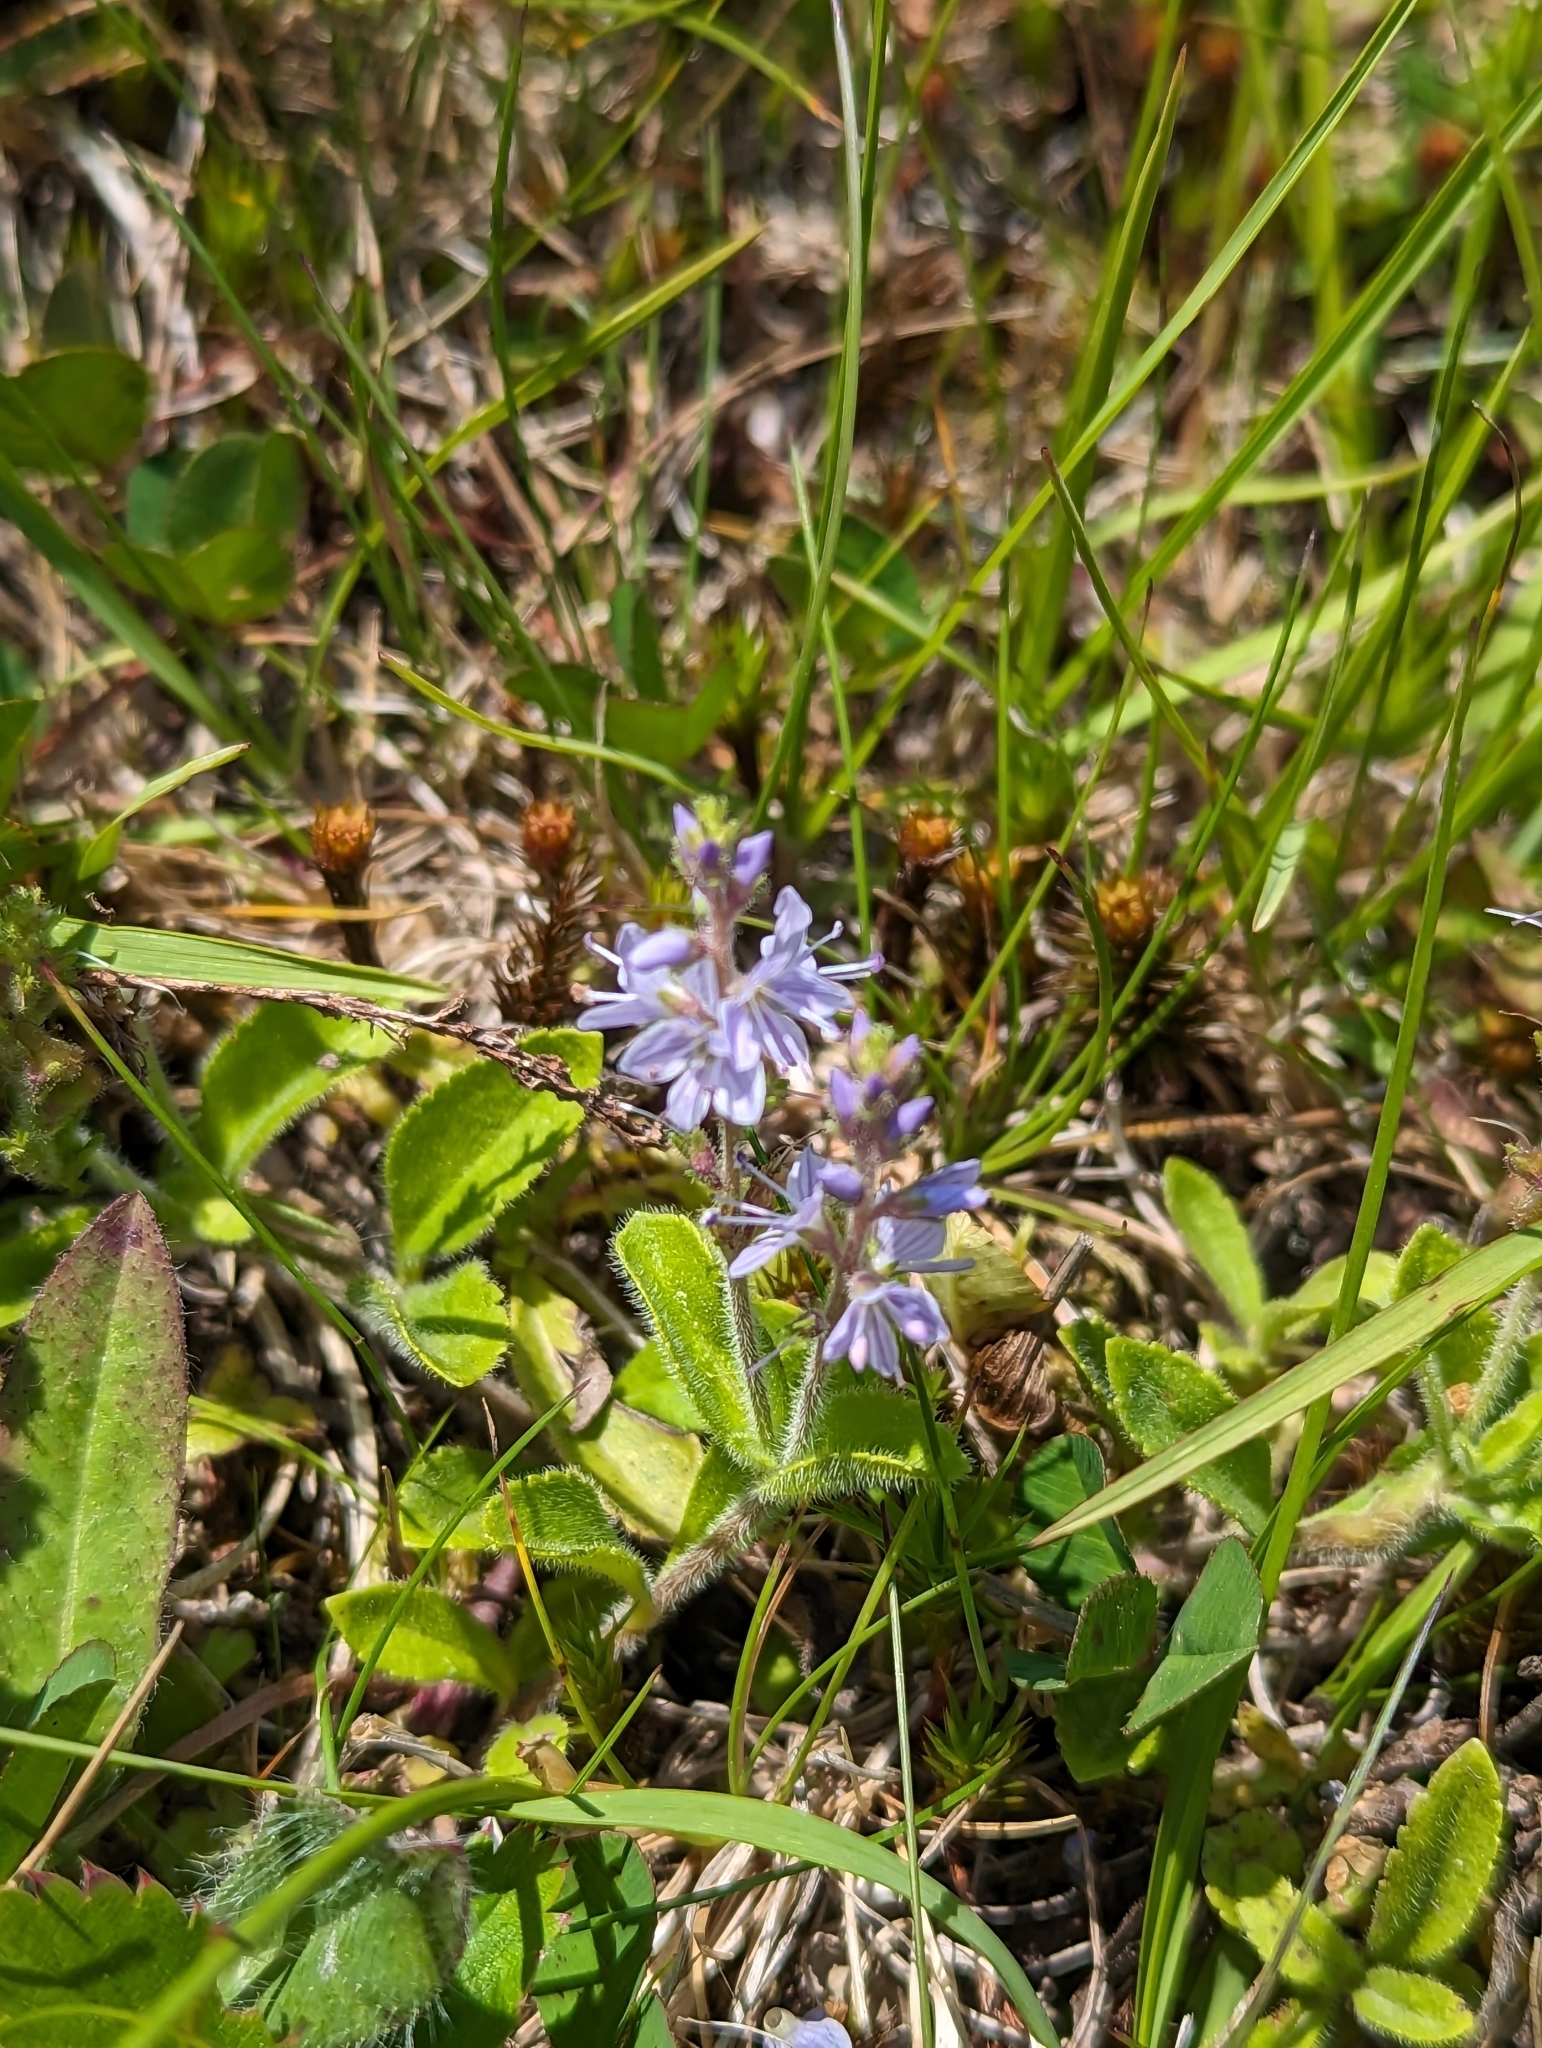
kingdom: Plantae
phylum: Tracheophyta
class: Magnoliopsida
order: Lamiales
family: Plantaginaceae
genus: Veronica
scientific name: Veronica officinalis
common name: Common speedwell
